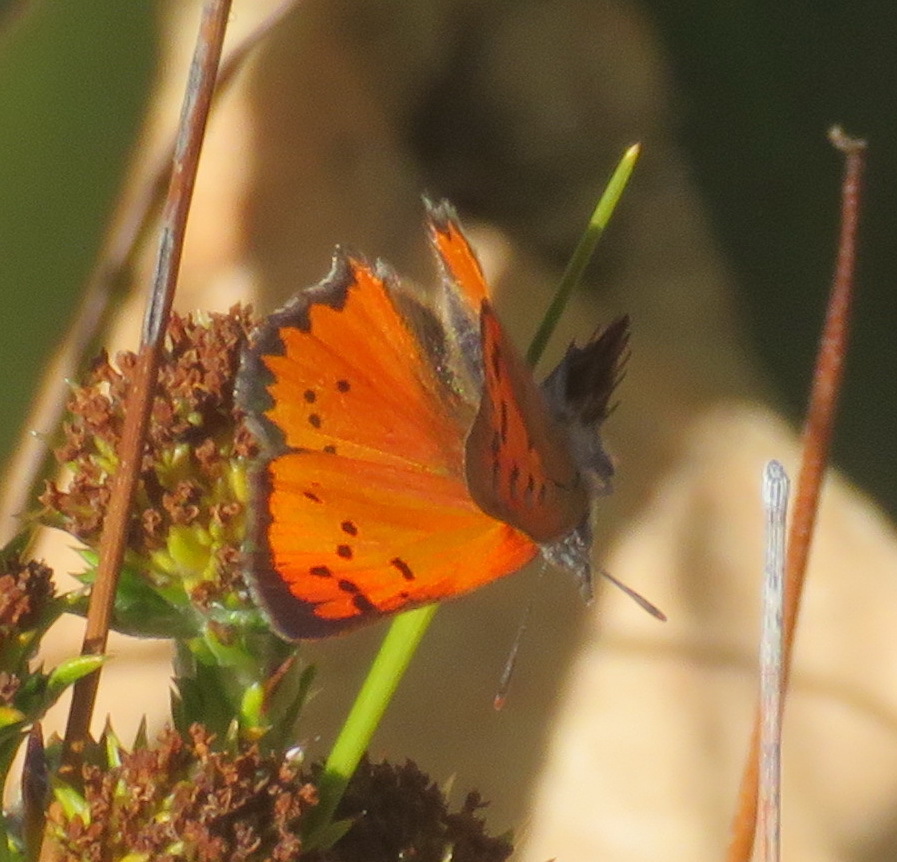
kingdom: Animalia
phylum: Arthropoda
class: Insecta
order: Lepidoptera
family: Lycaenidae
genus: Zeritis
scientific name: Zeritis chrysaor
